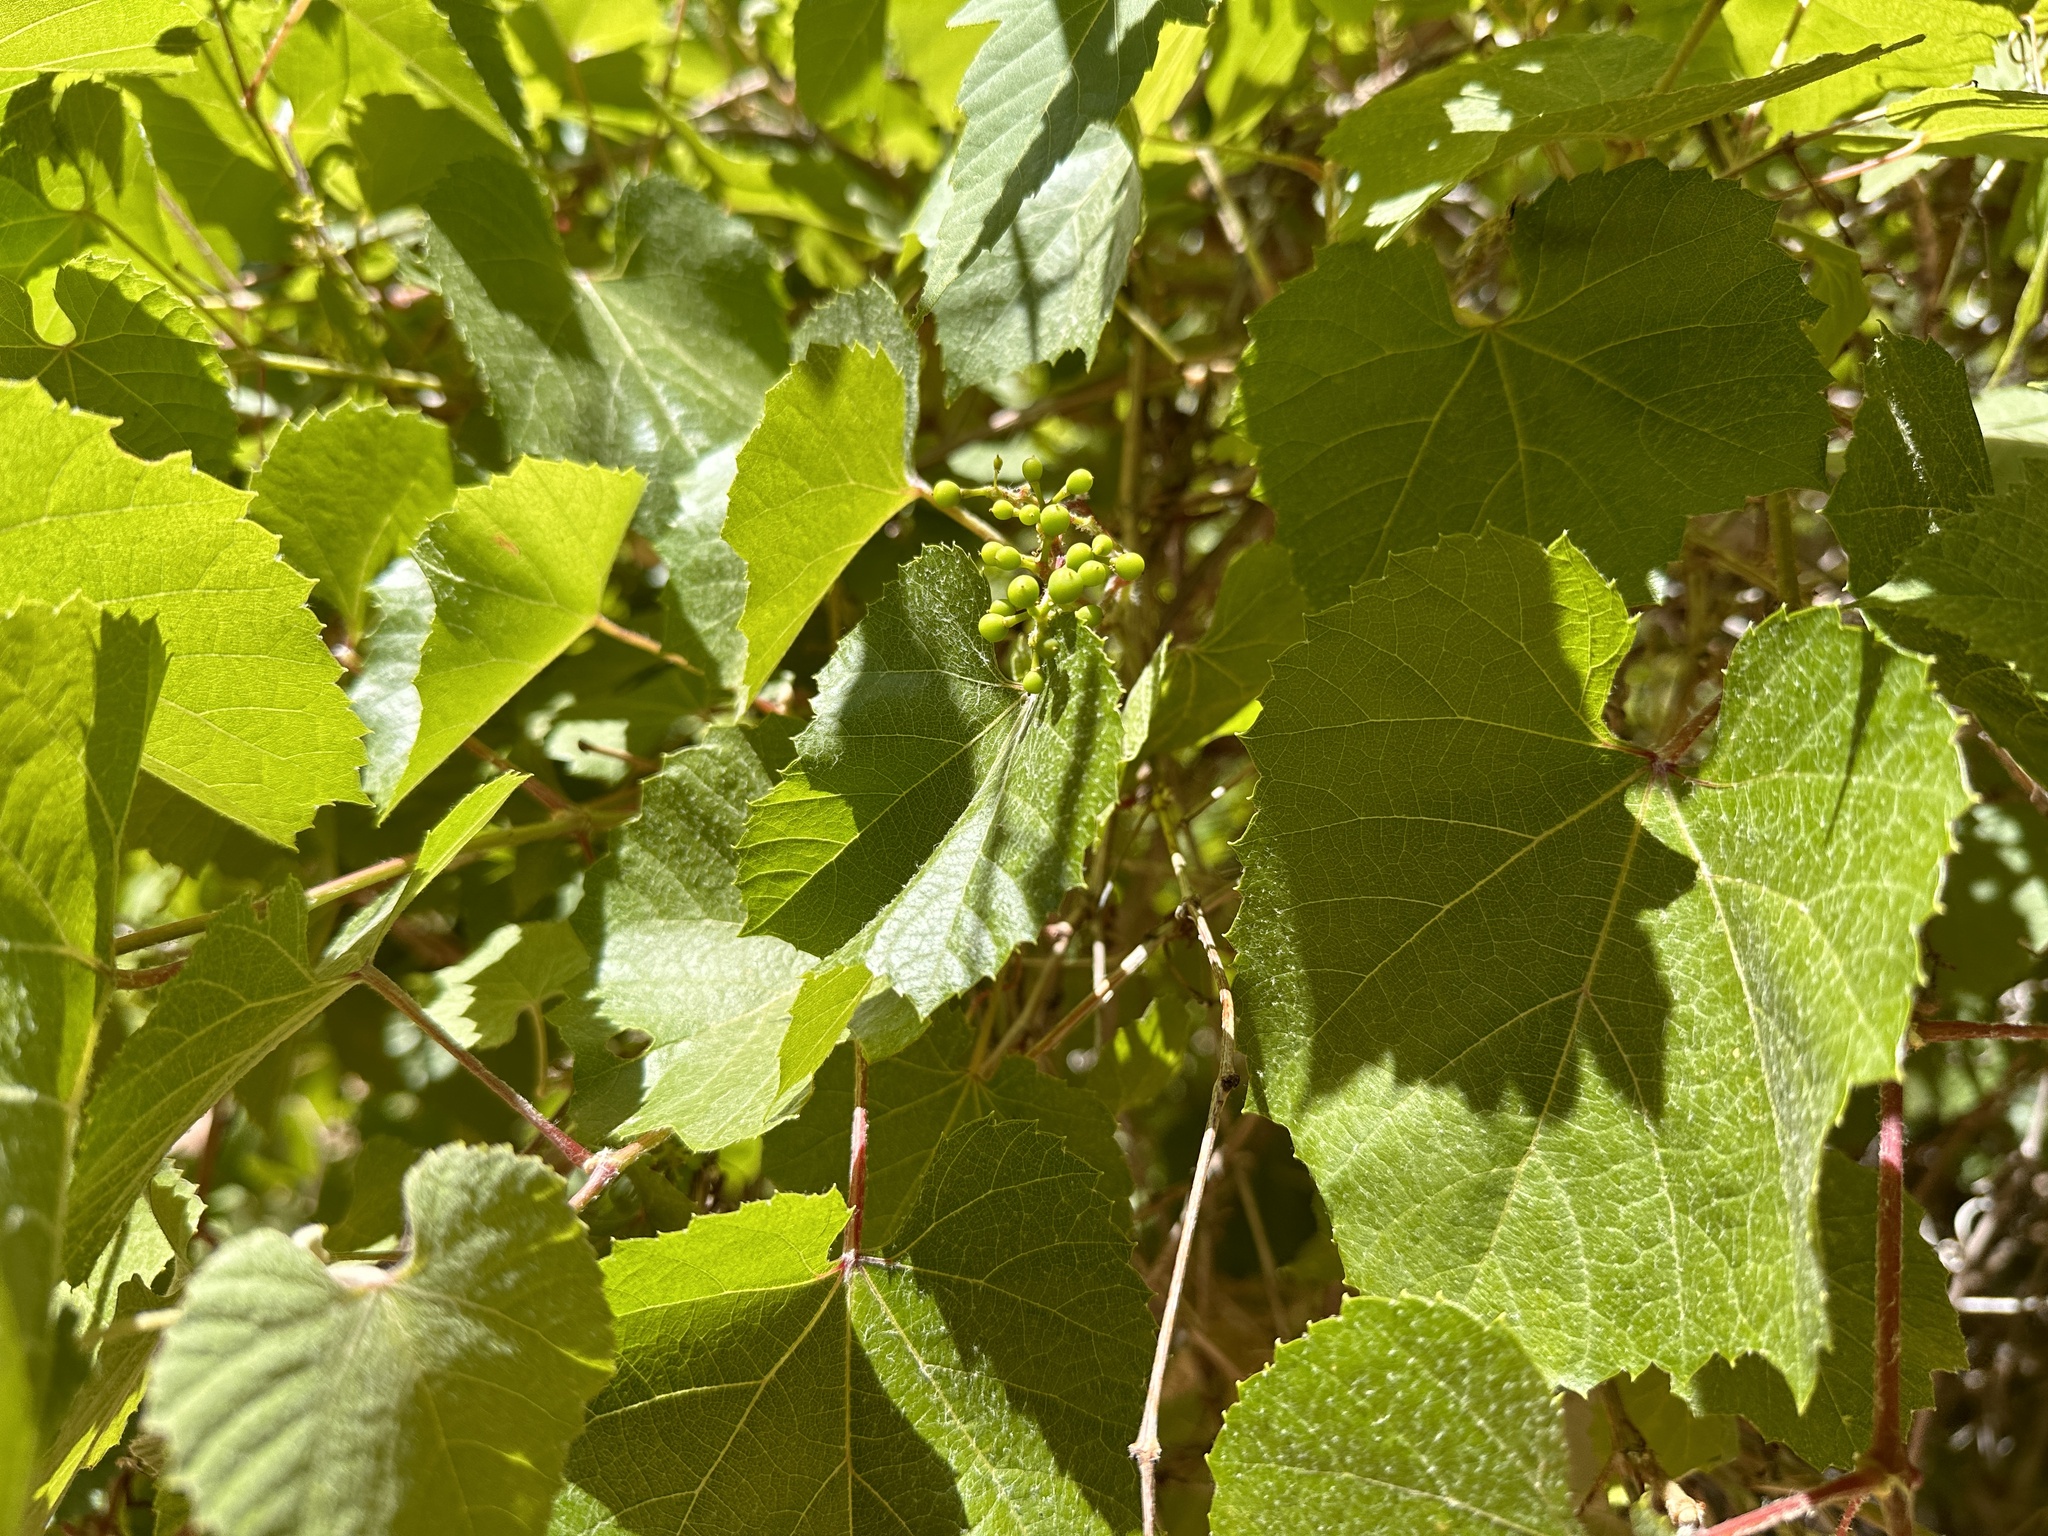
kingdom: Plantae
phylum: Tracheophyta
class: Magnoliopsida
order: Vitales
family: Vitaceae
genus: Vitis
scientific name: Vitis arizonica
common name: Canyon grape
